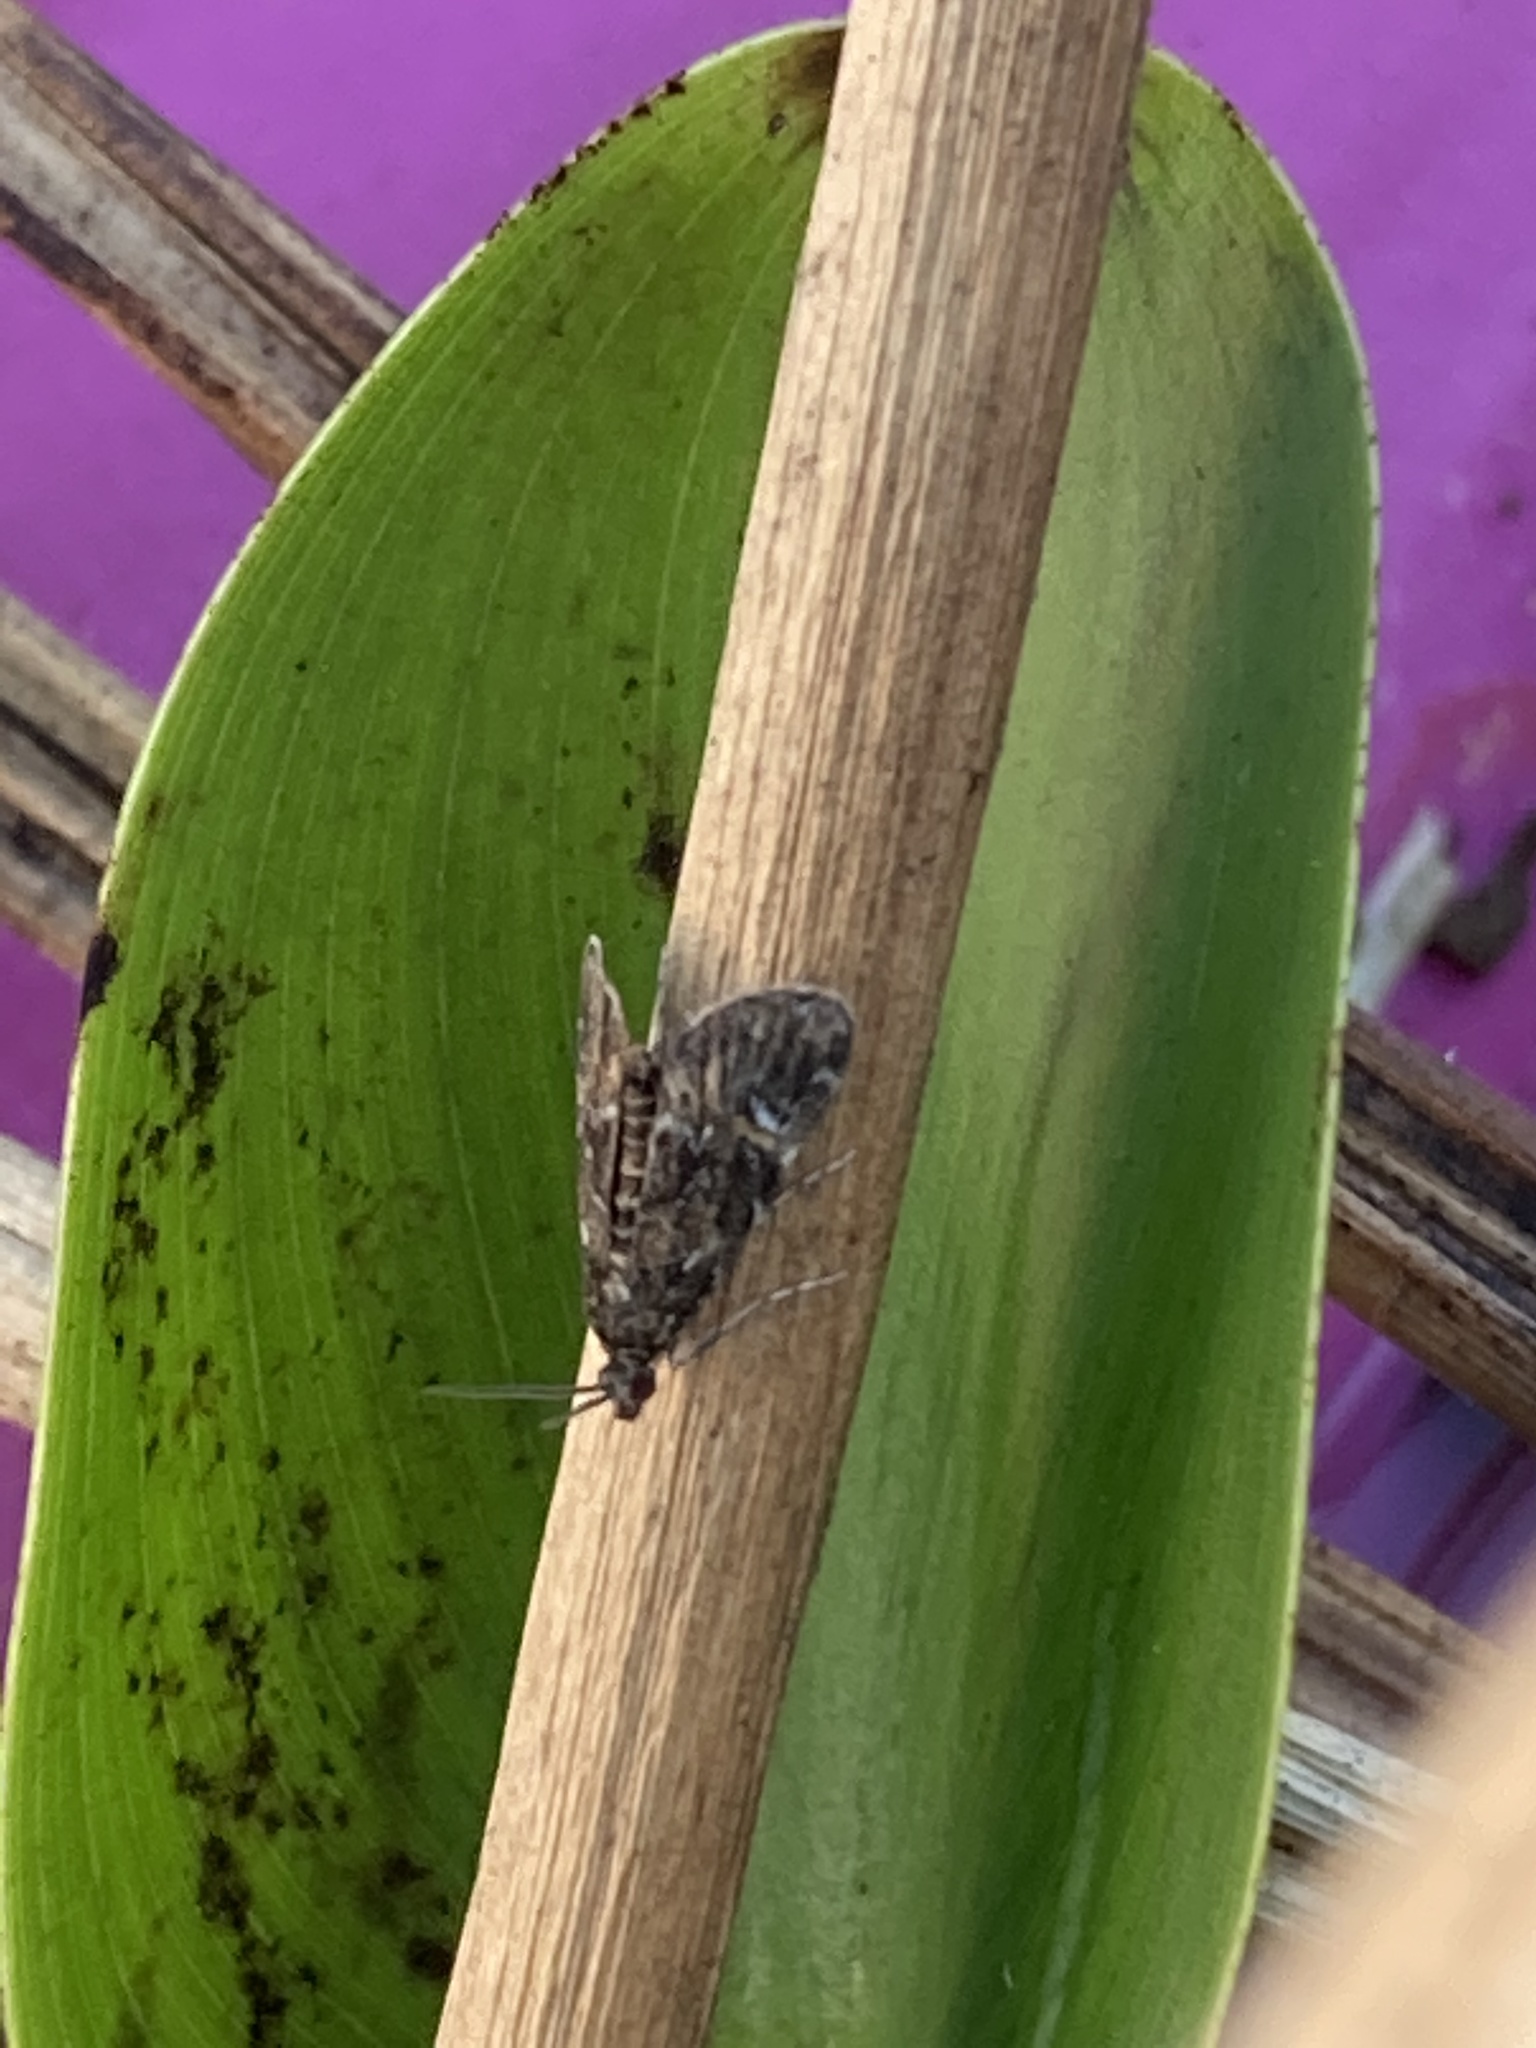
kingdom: Animalia
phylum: Arthropoda
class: Insecta
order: Lepidoptera
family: Crambidae
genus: Elophila
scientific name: Elophila obliteralis
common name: Waterlily leafcutter moth
